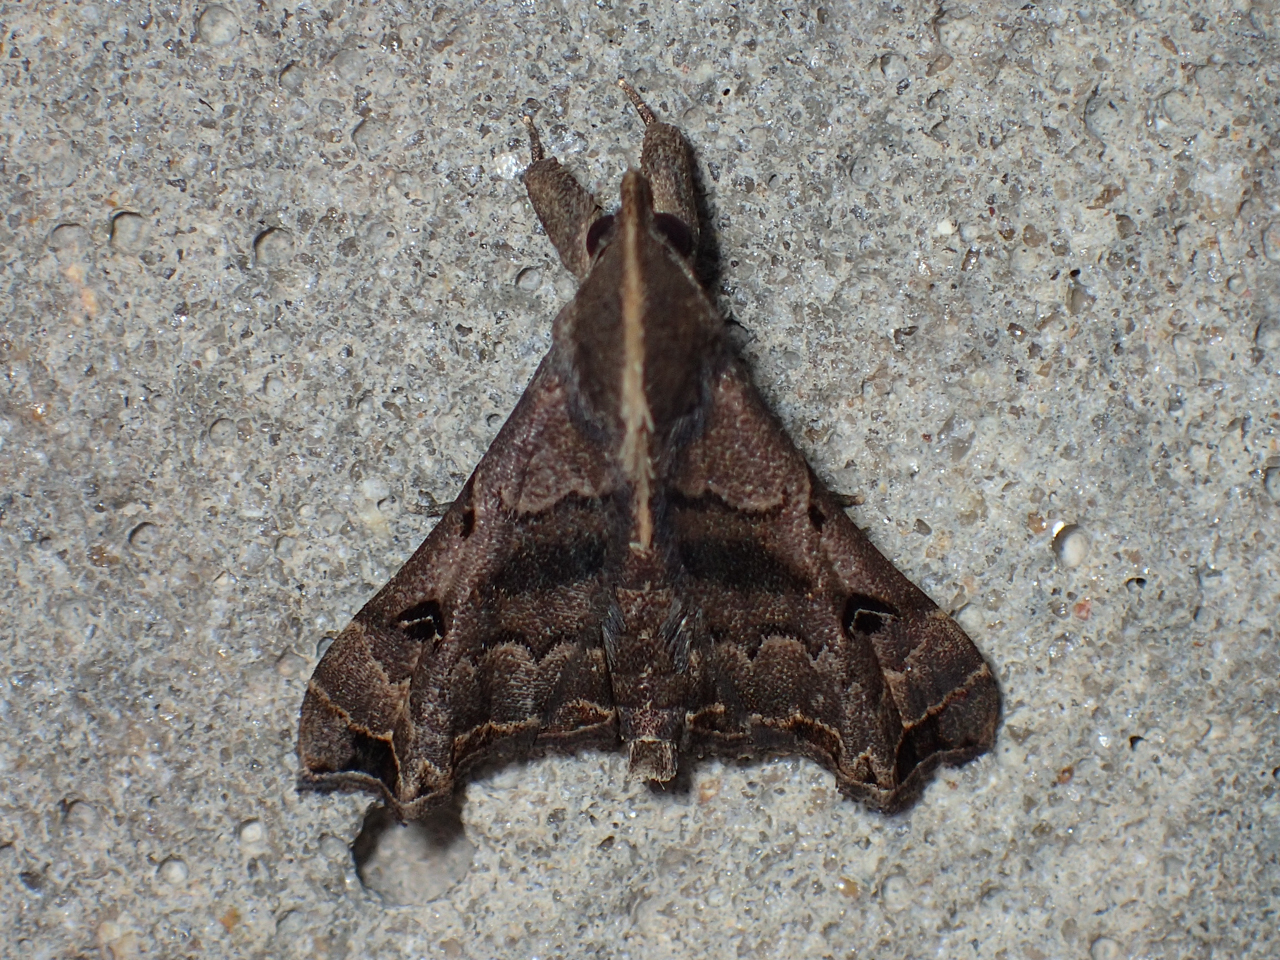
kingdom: Animalia
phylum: Arthropoda
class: Insecta
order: Lepidoptera
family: Erebidae
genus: Palthis
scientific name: Palthis asopialis
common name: Faint-spotted palthis moth
